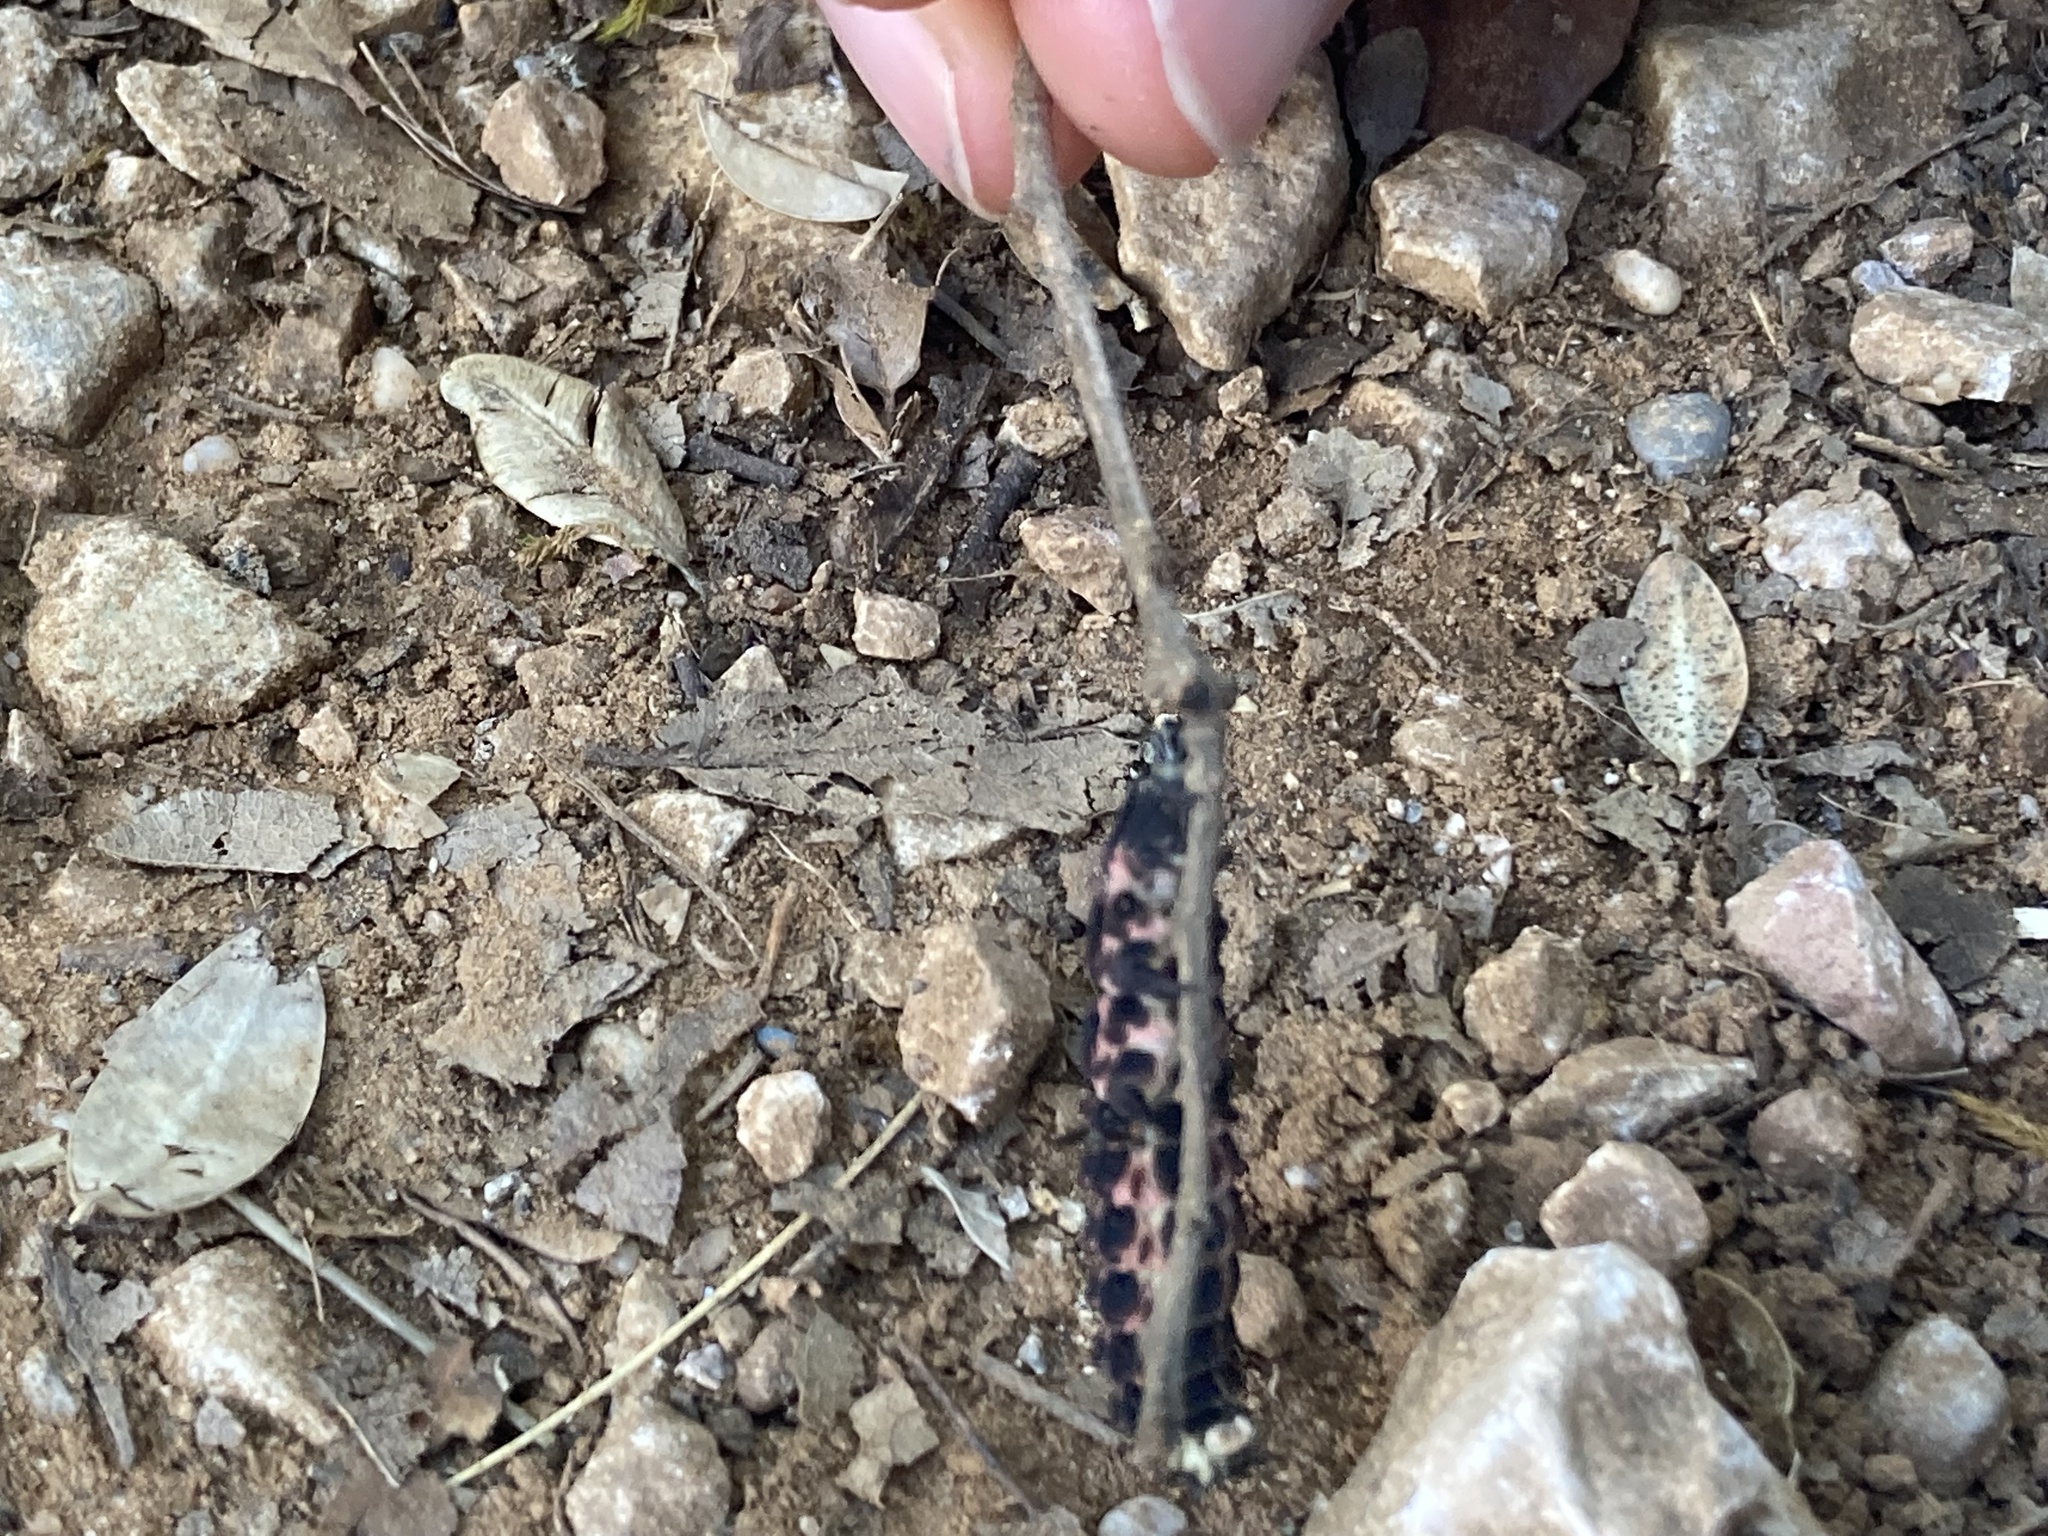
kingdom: Animalia
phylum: Arthropoda
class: Insecta
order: Coleoptera
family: Lampyridae
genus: Nyctophila
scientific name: Nyctophila reichii
